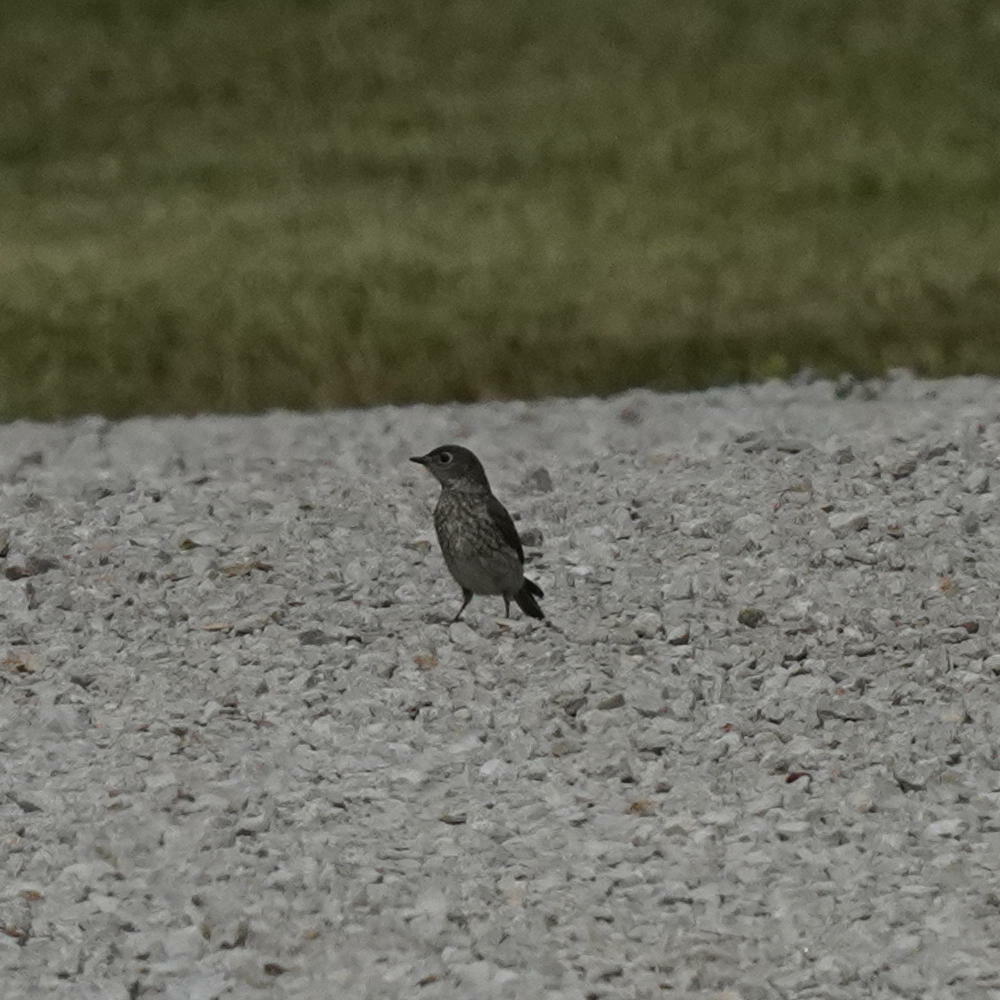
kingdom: Animalia
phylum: Chordata
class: Aves
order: Passeriformes
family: Turdidae
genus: Sialia
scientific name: Sialia sialis
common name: Eastern bluebird
